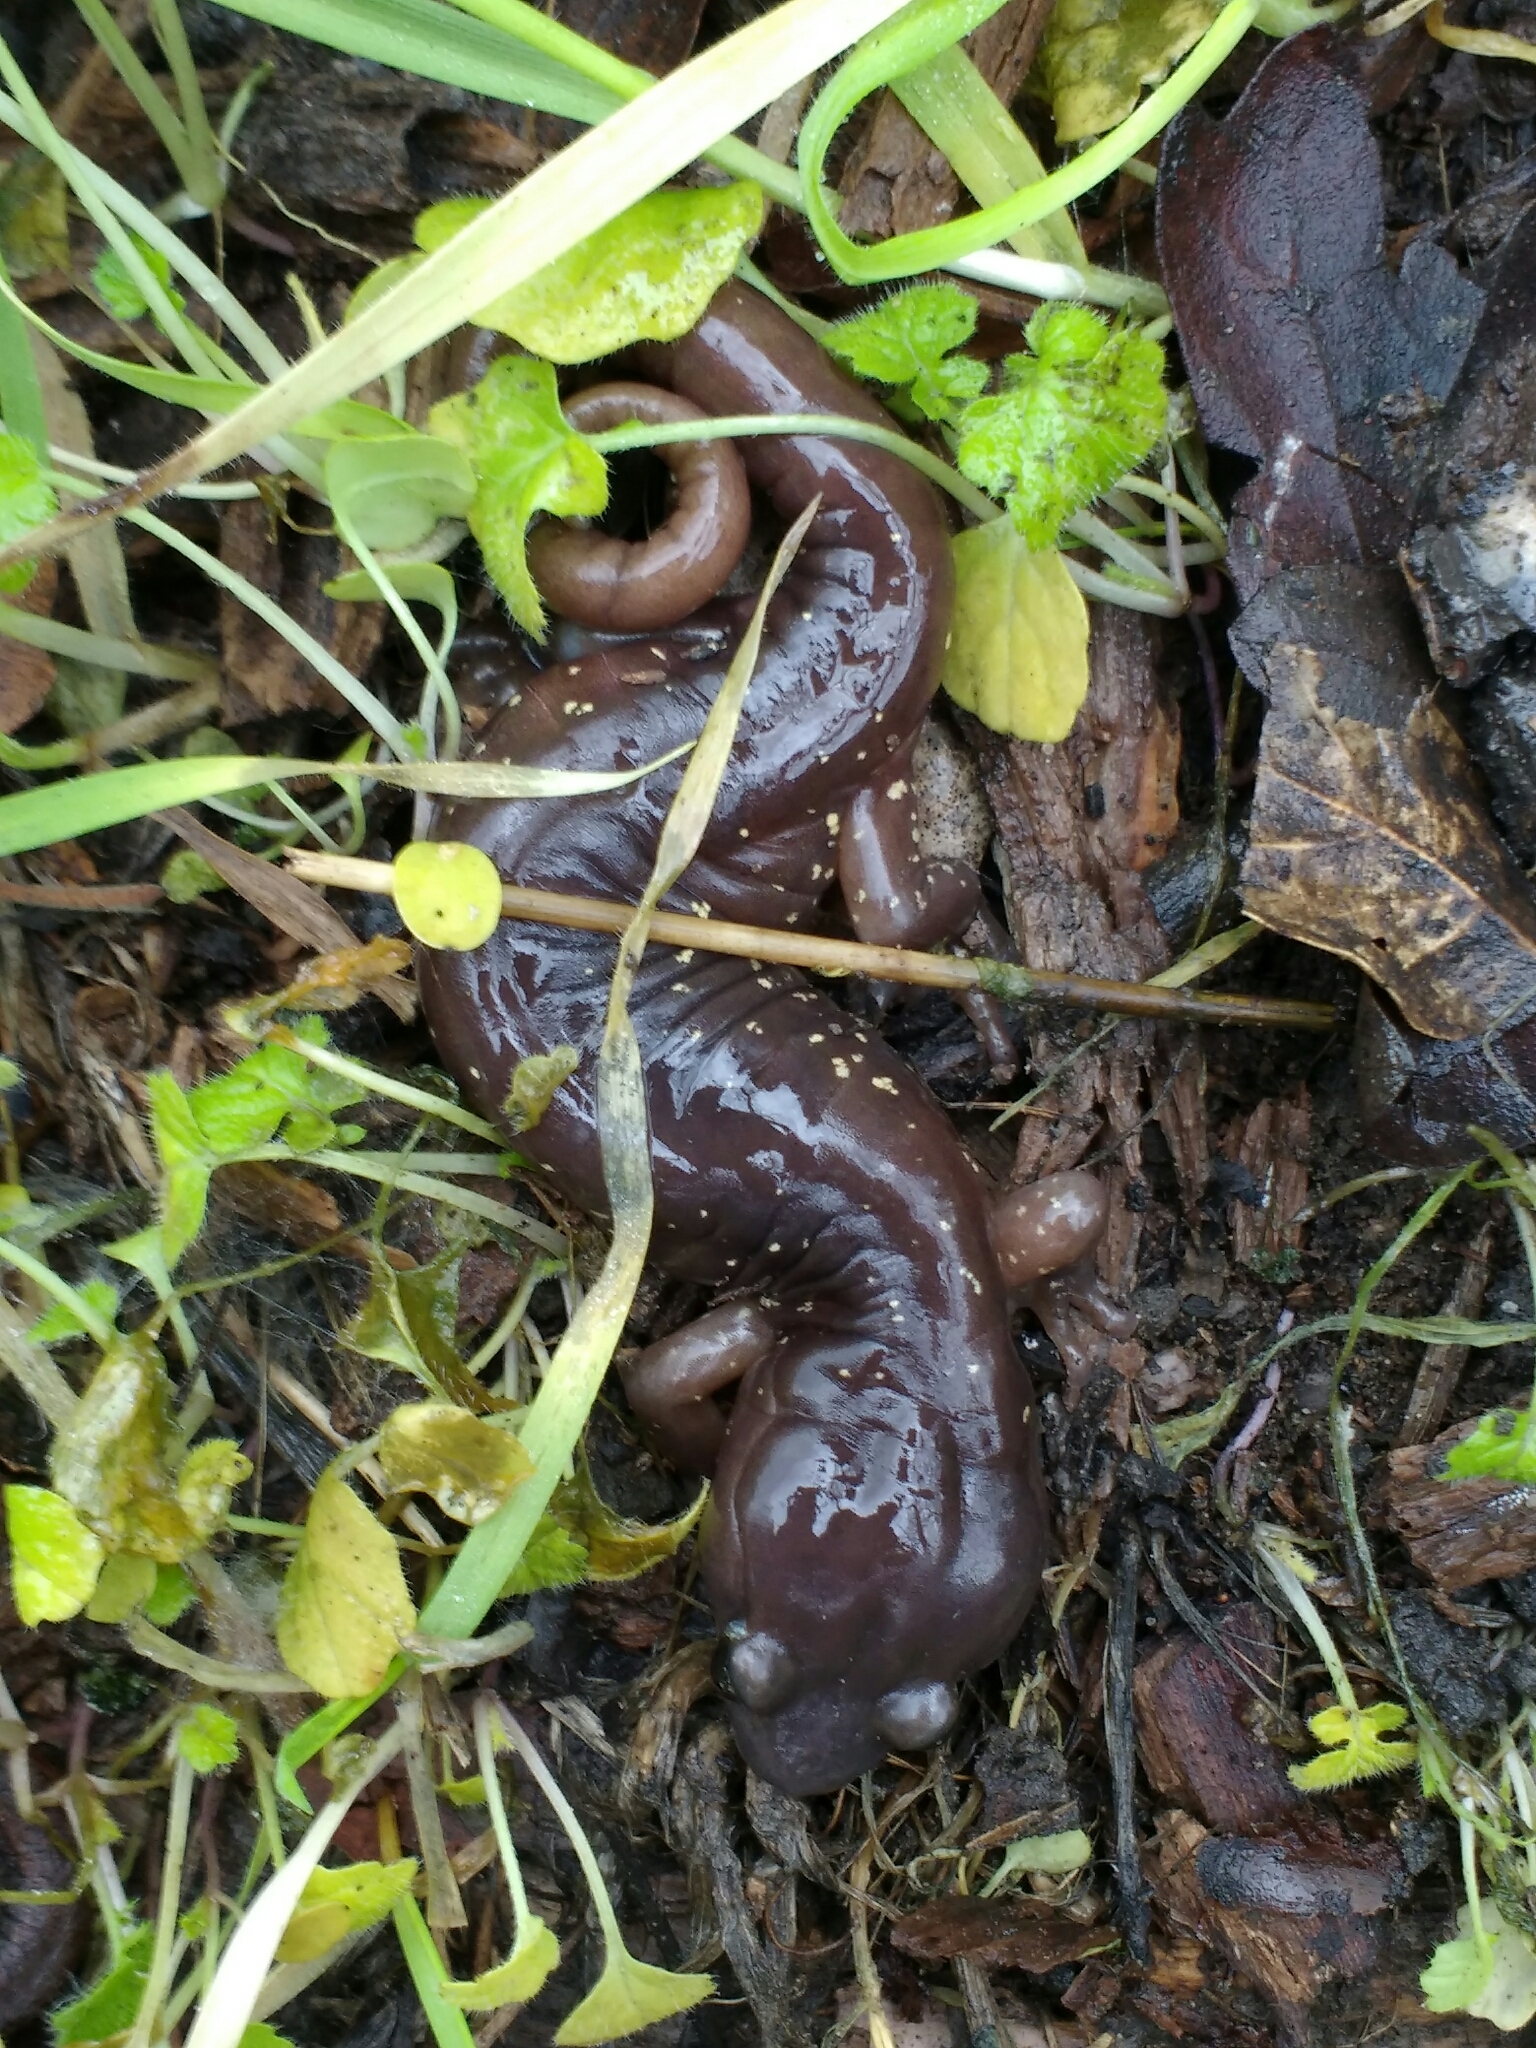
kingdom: Animalia
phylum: Chordata
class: Amphibia
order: Caudata
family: Plethodontidae
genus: Aneides
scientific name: Aneides lugubris
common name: Arboreal salamander
